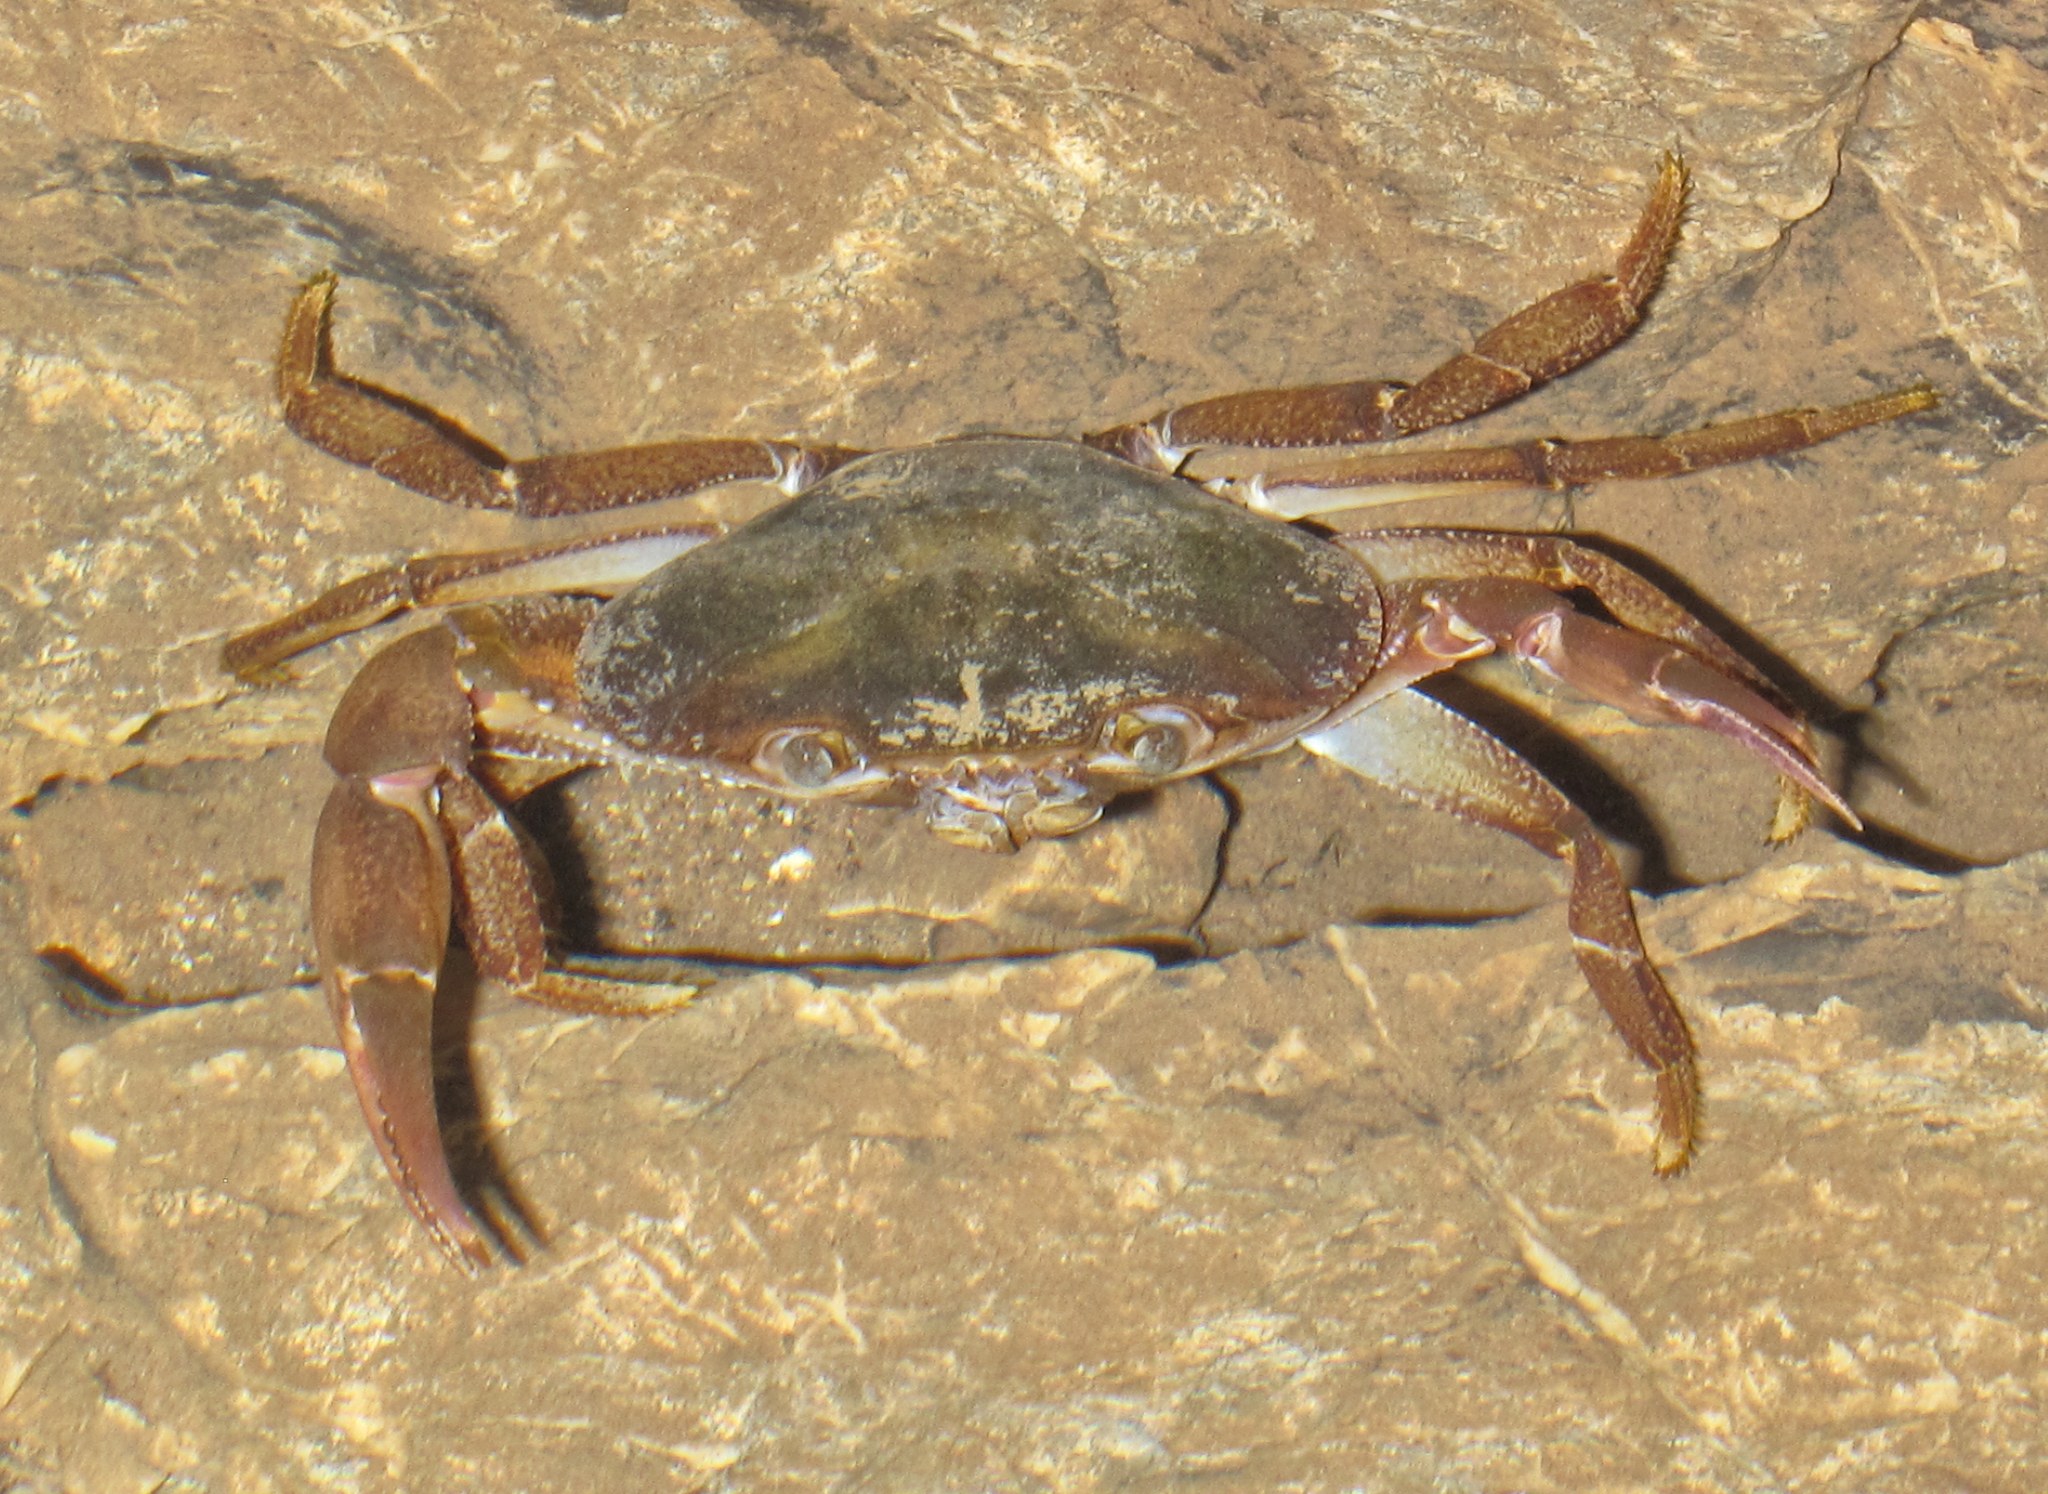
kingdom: Animalia
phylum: Arthropoda
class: Malacostraca
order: Decapoda
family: Epiloboceridae
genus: Epilobocera
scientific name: Epilobocera haytensis
